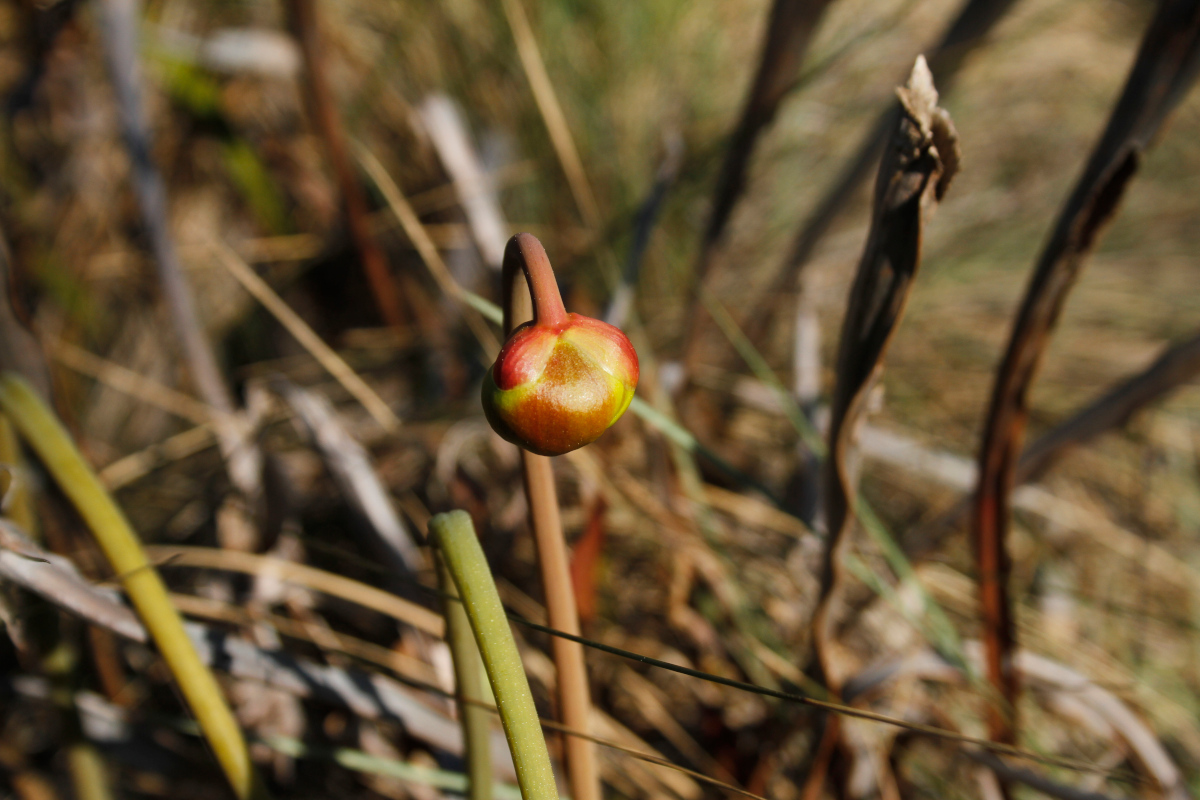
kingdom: Plantae
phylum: Tracheophyta
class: Magnoliopsida
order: Ericales
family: Sarraceniaceae
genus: Sarracenia
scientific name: Sarracenia flava
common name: Trumpets
